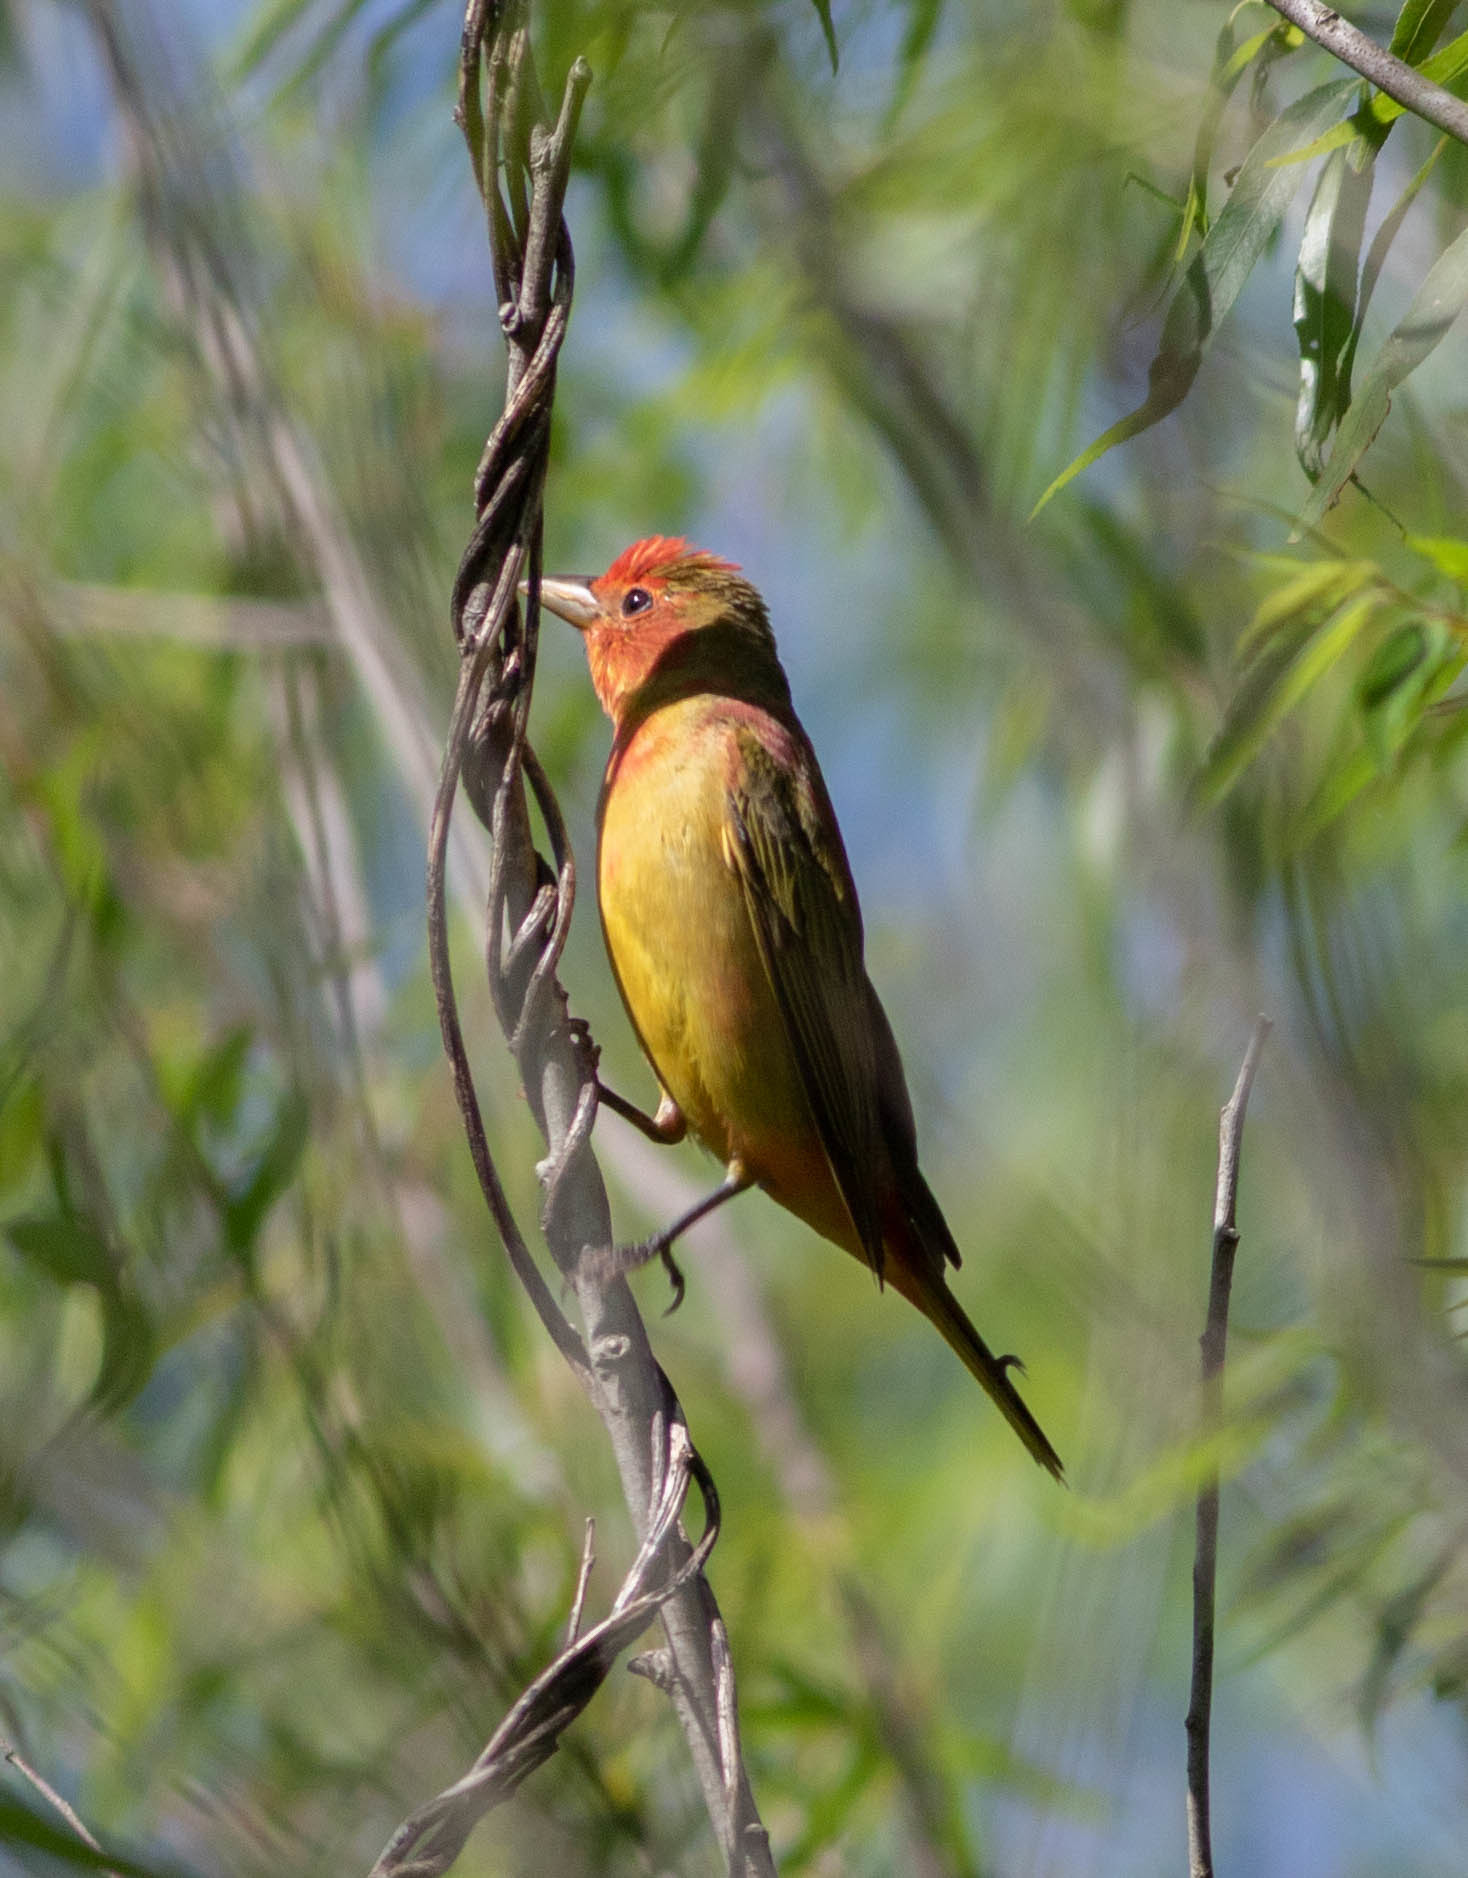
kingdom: Animalia
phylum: Chordata
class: Aves
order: Passeriformes
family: Cardinalidae
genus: Piranga
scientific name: Piranga rubra
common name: Summer tanager
